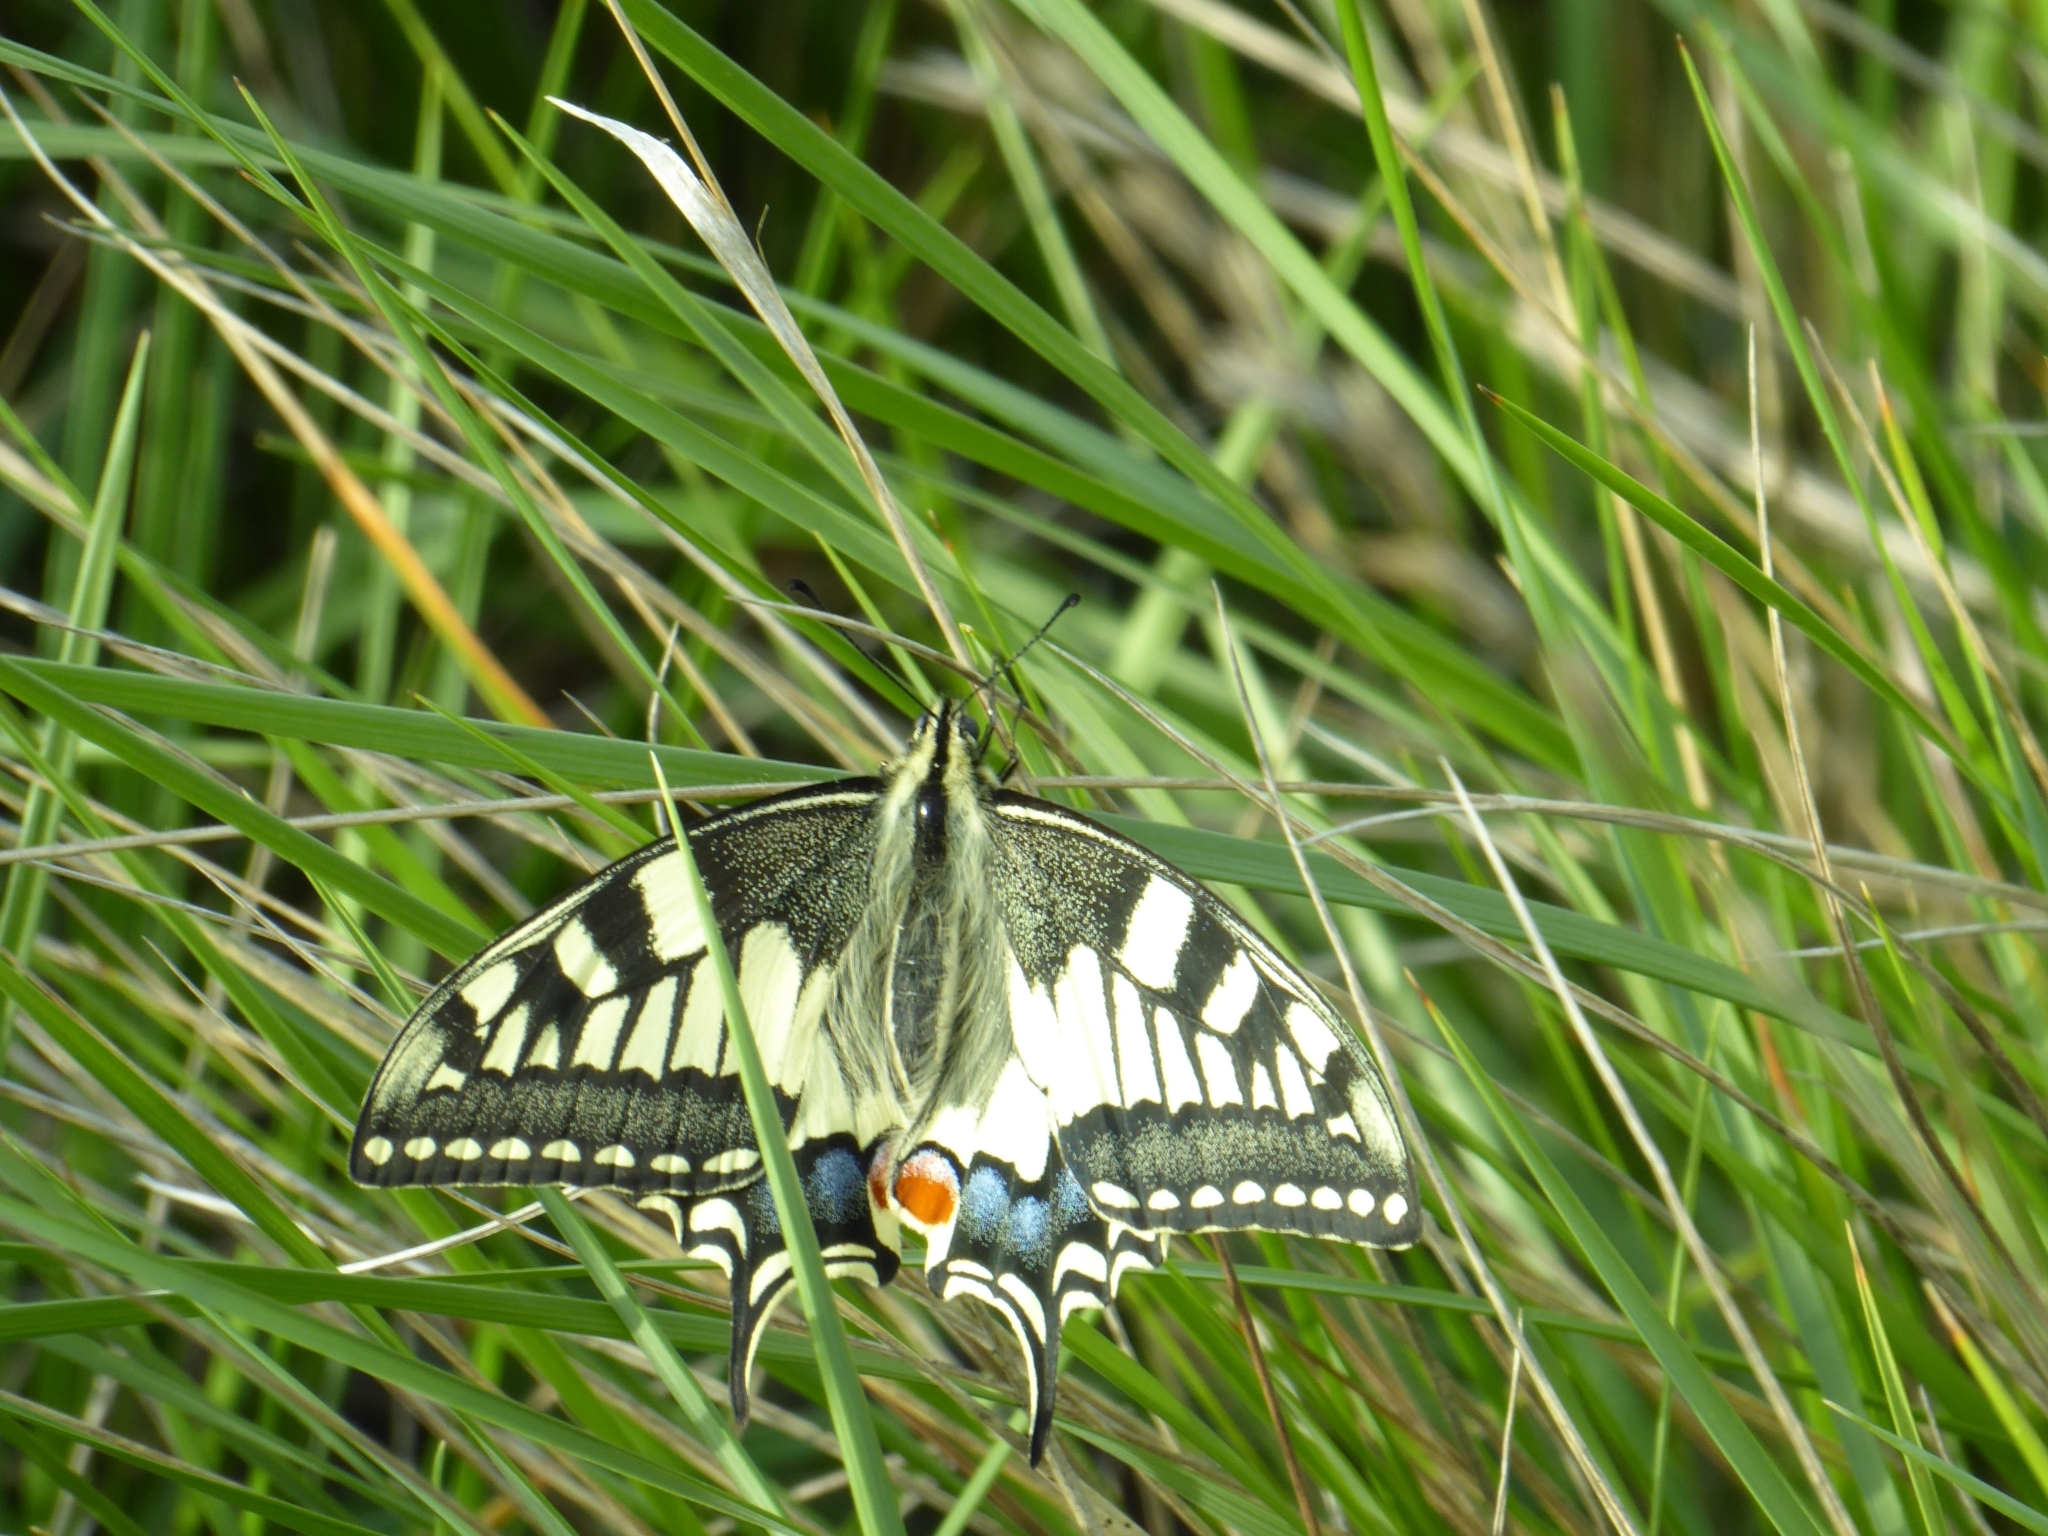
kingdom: Animalia
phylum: Arthropoda
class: Insecta
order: Lepidoptera
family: Papilionidae
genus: Papilio
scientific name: Papilio machaon
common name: Swallowtail
